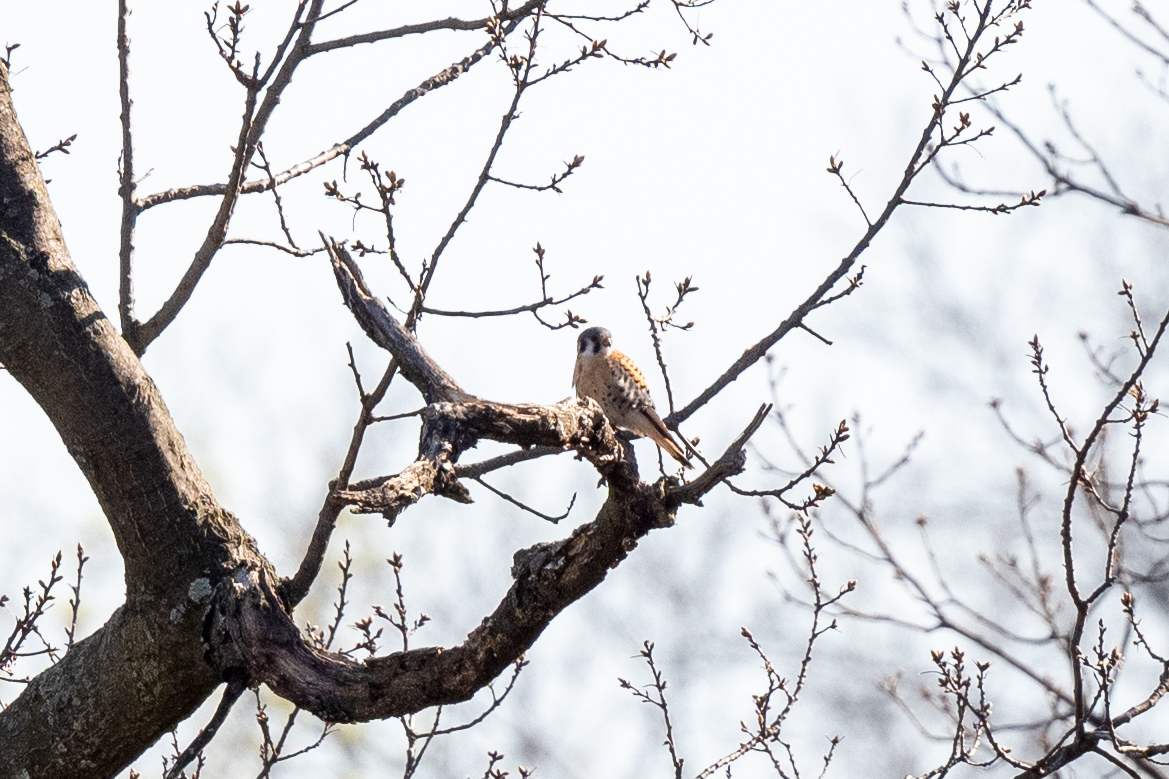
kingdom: Animalia
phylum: Chordata
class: Aves
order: Falconiformes
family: Falconidae
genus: Falco
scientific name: Falco sparverius
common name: American kestrel
